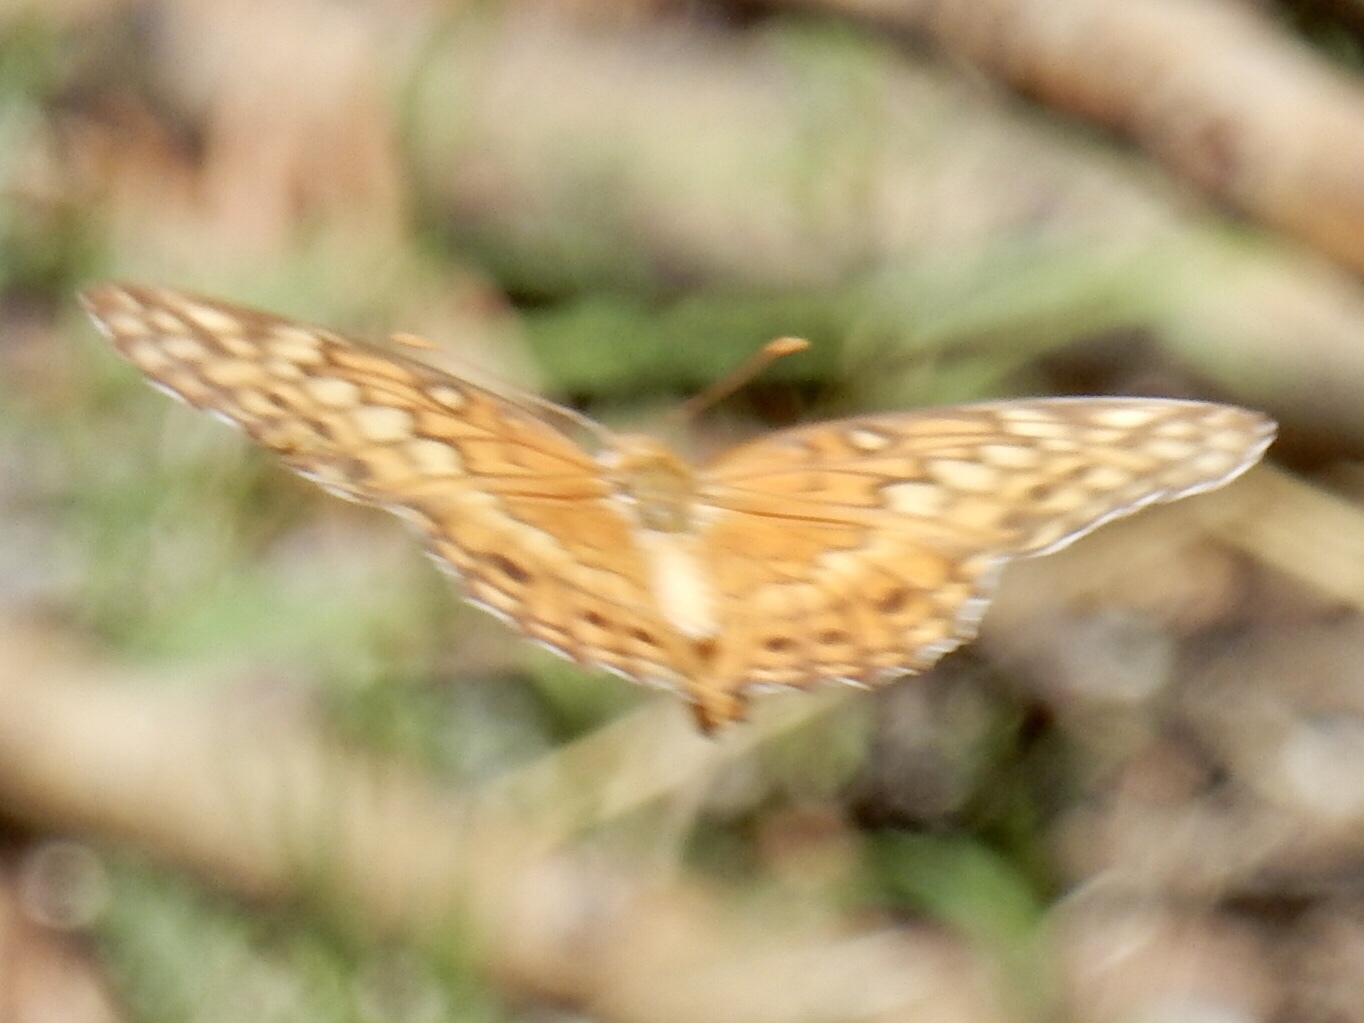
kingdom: Animalia
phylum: Arthropoda
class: Insecta
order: Lepidoptera
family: Nymphalidae
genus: Euptoieta
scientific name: Euptoieta claudia
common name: Variegated fritillary
